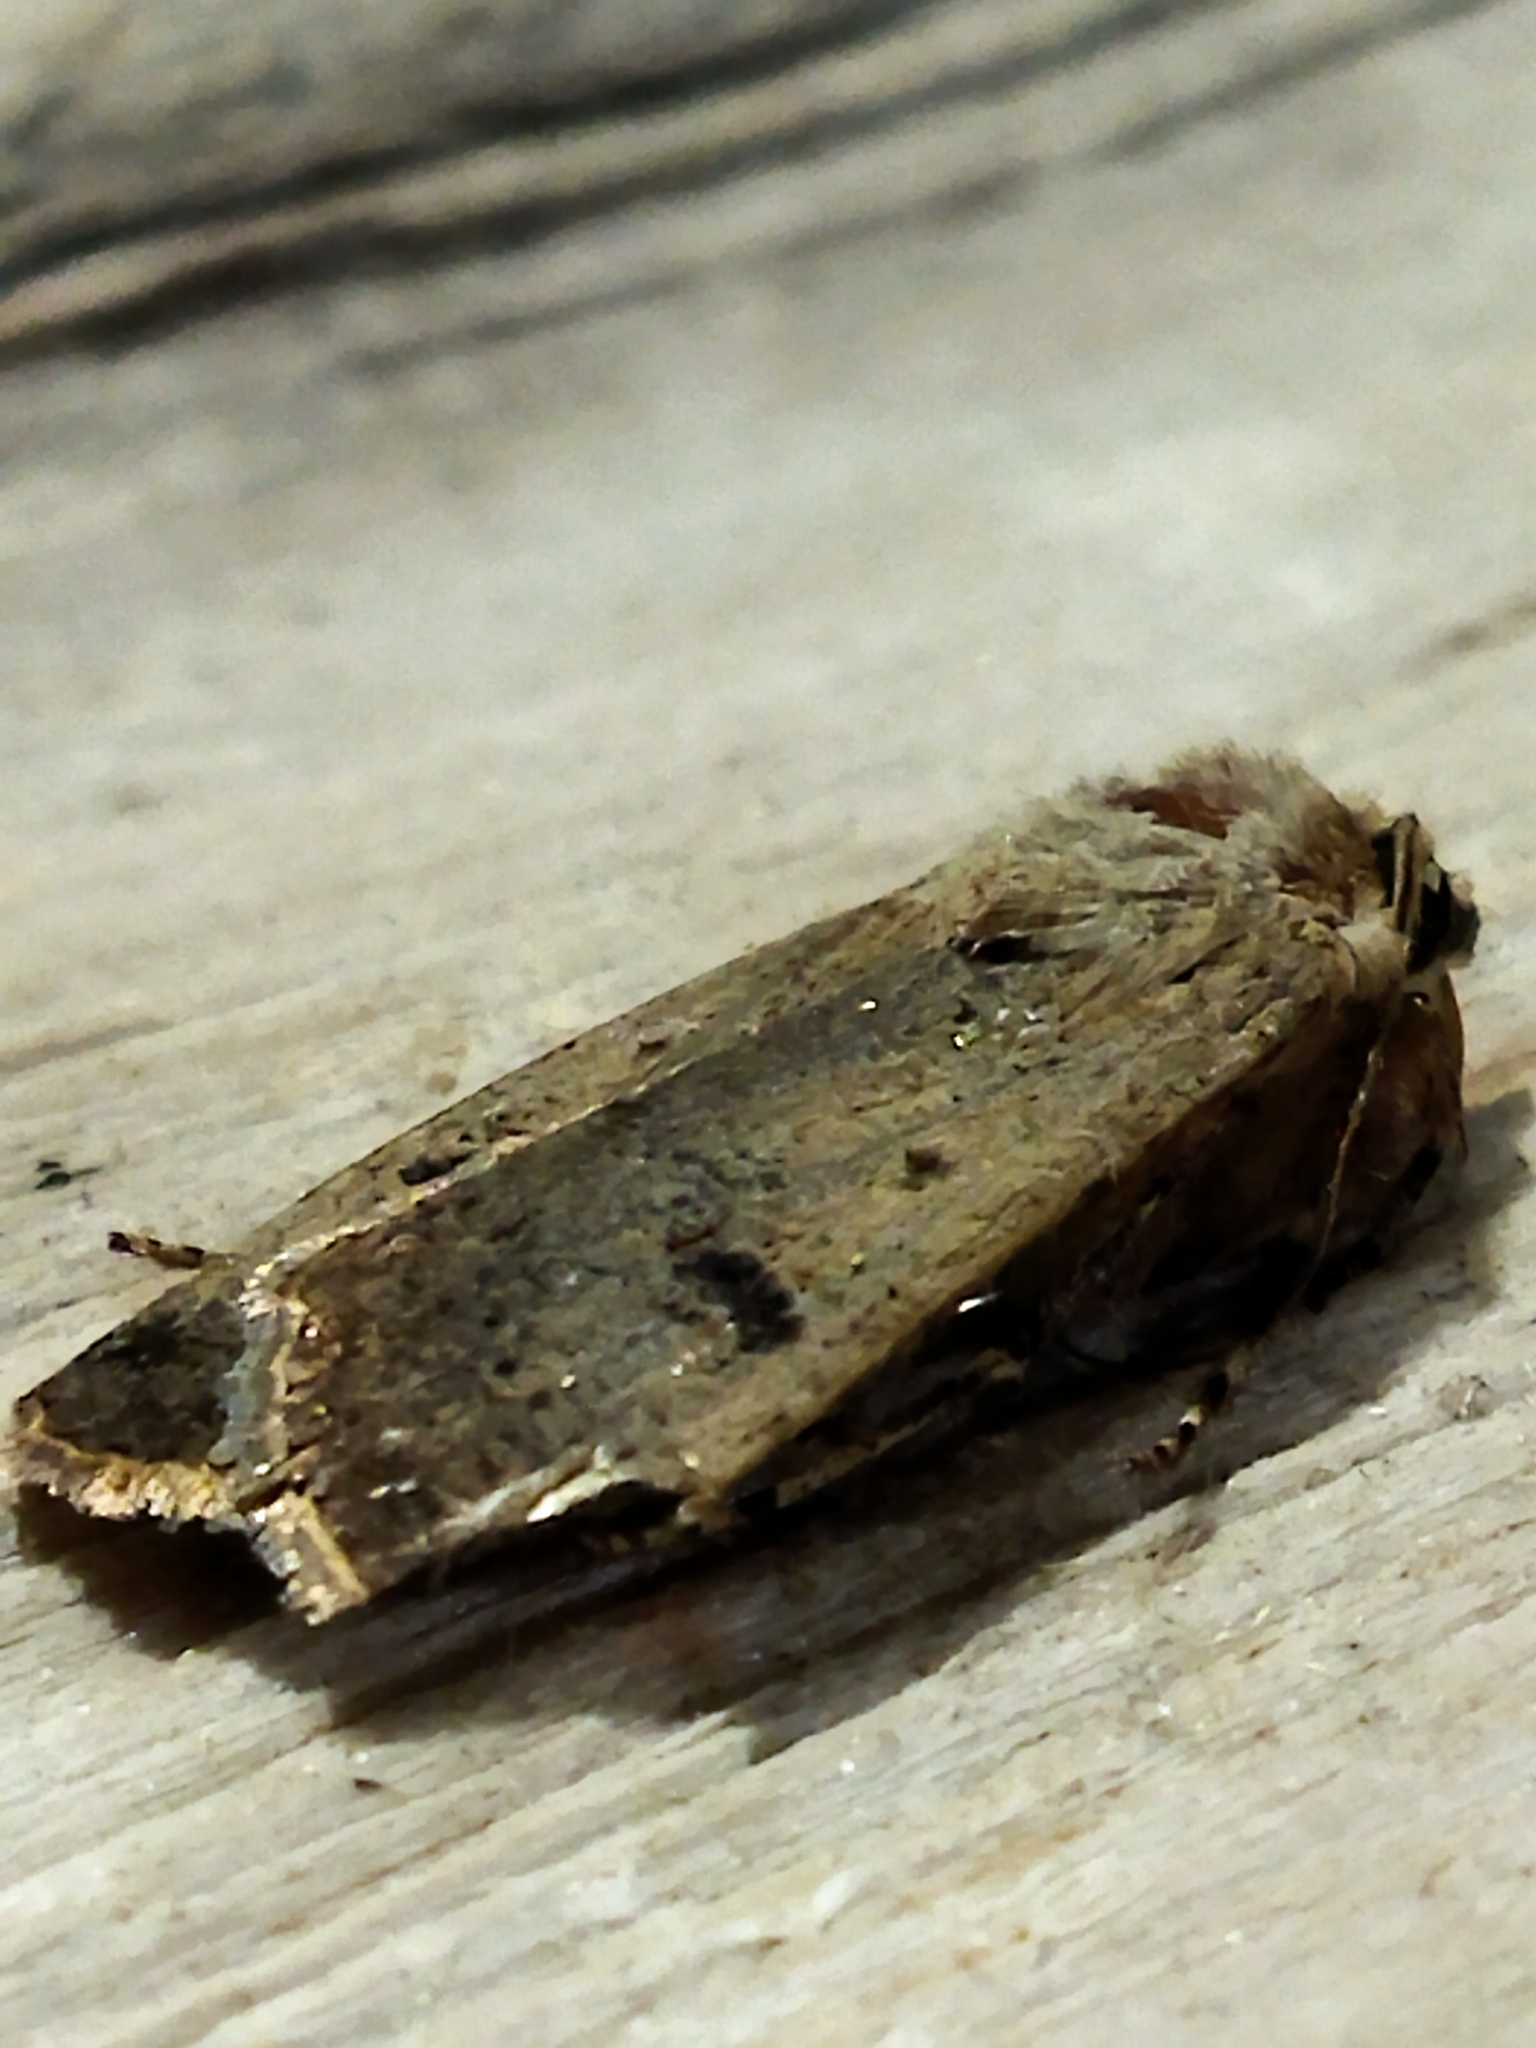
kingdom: Animalia
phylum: Arthropoda
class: Insecta
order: Lepidoptera
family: Noctuidae
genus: Agrotis
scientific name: Agrotis trux
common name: Crescent dart
